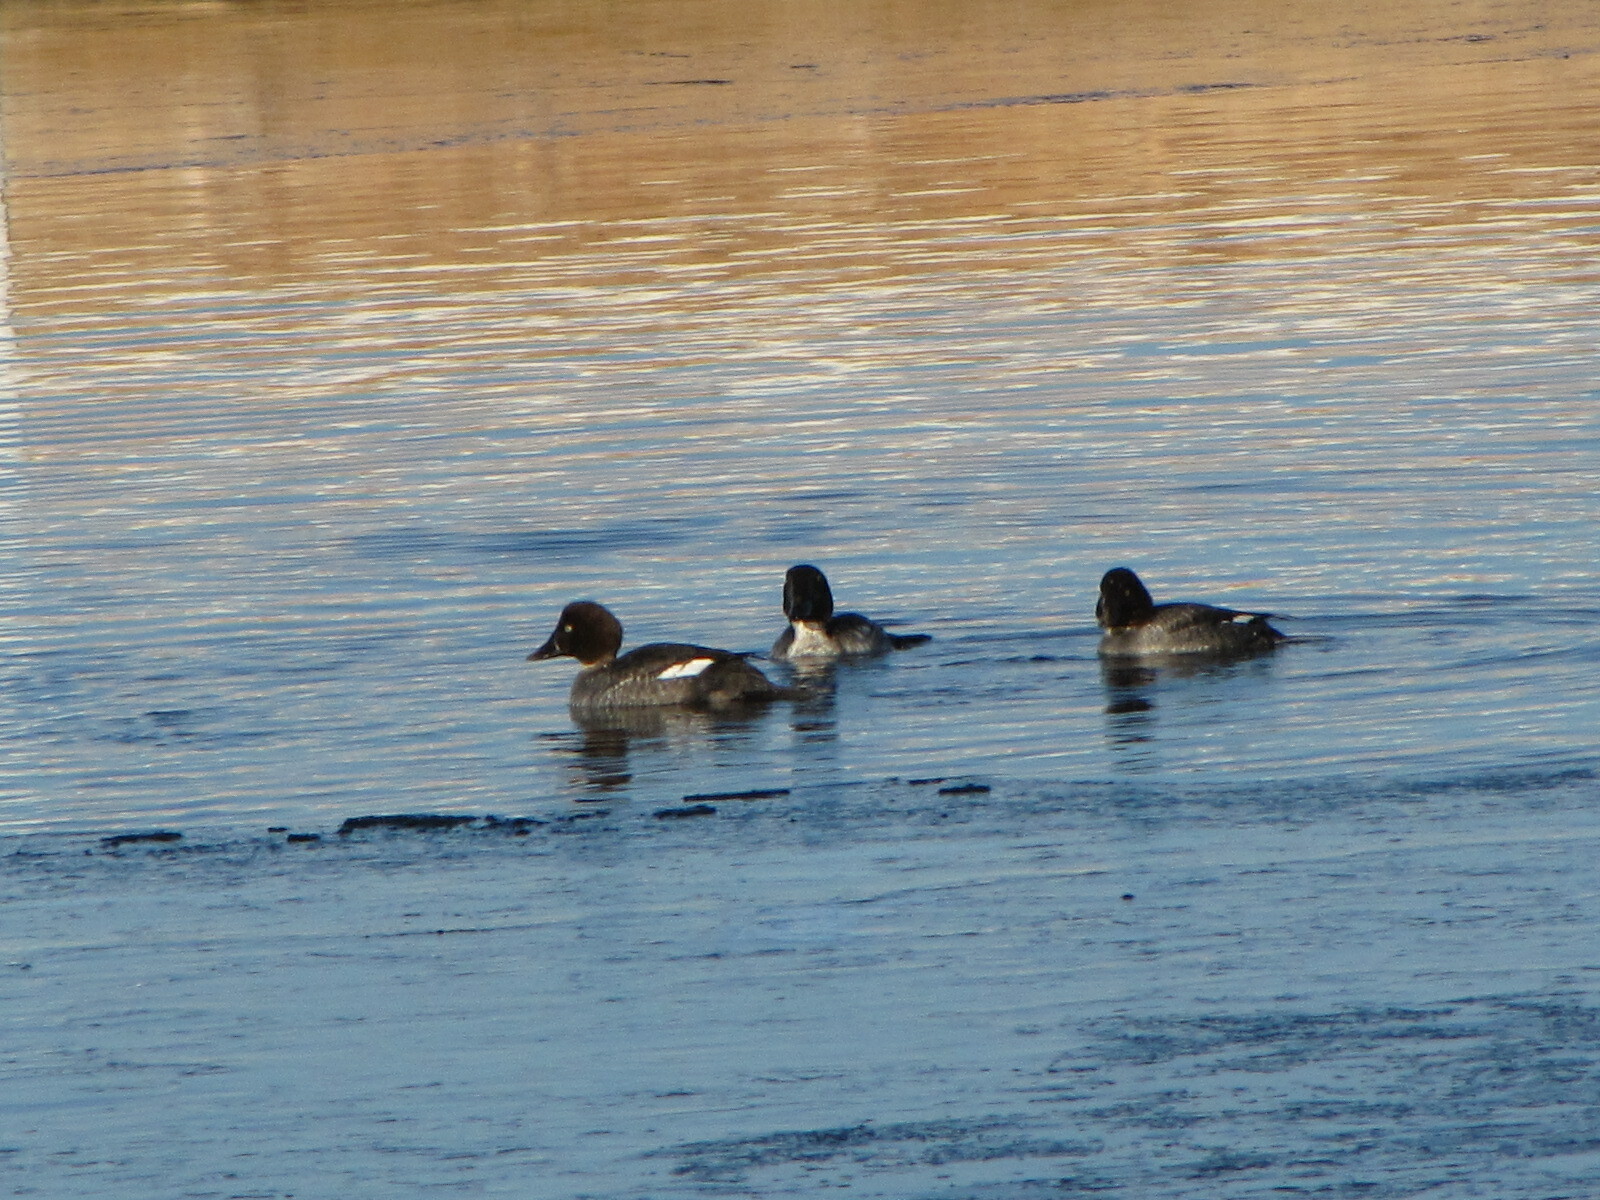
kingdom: Animalia
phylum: Chordata
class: Aves
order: Anseriformes
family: Anatidae
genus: Bucephala
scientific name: Bucephala clangula
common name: Common goldeneye
